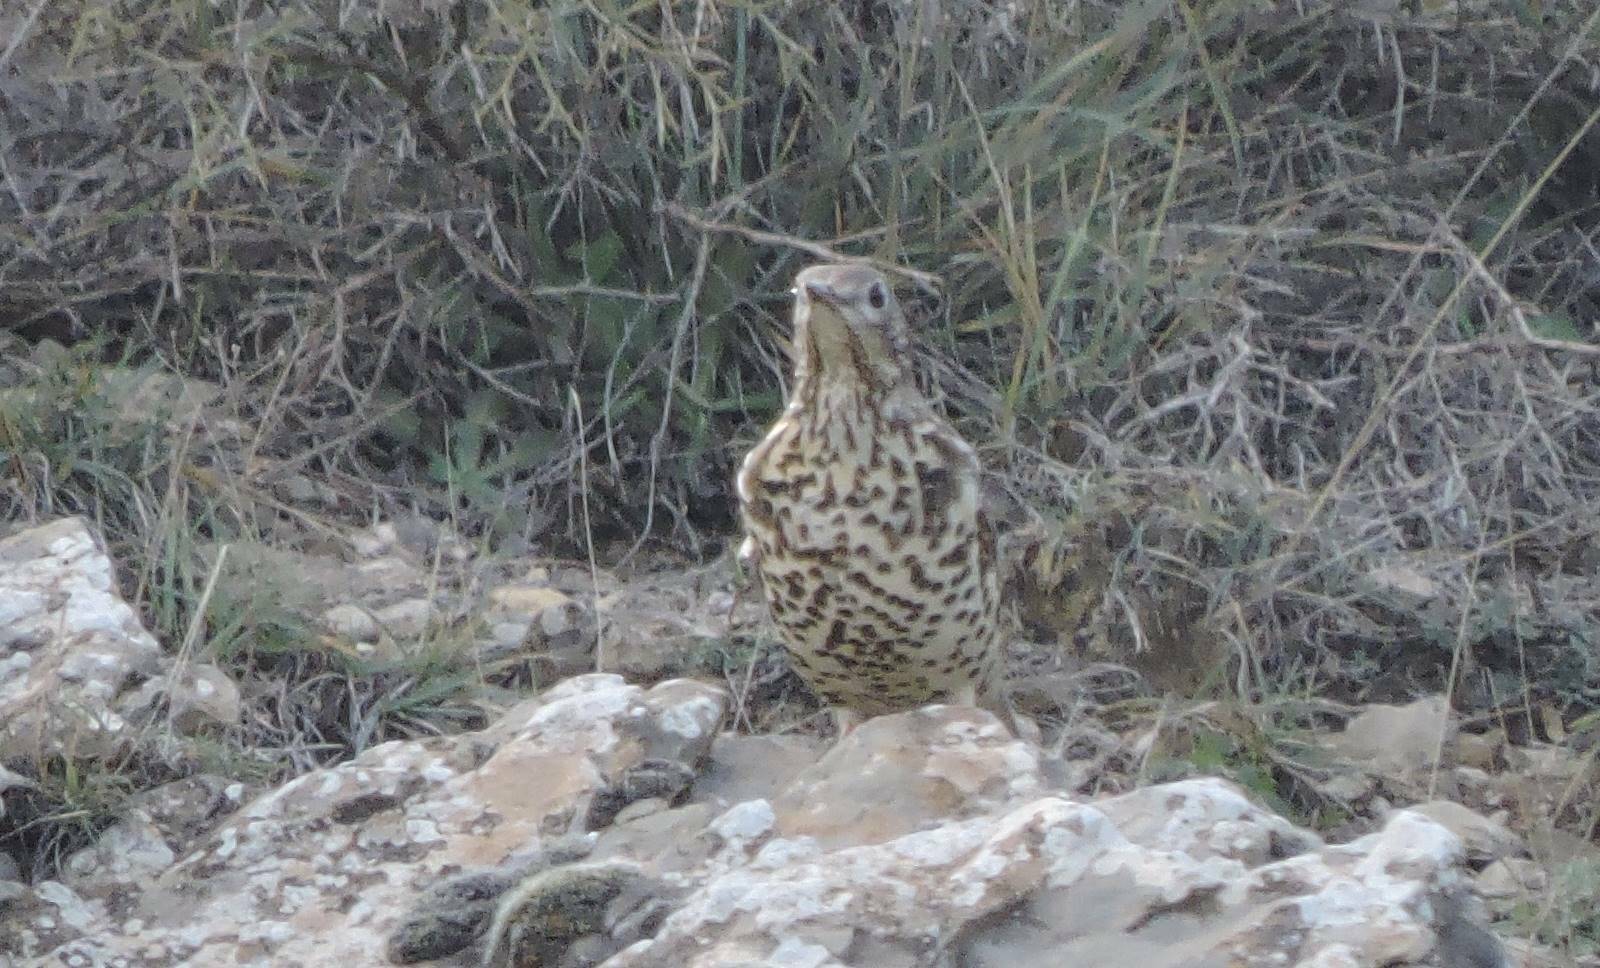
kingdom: Animalia
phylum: Chordata
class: Aves
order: Passeriformes
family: Turdidae
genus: Turdus
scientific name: Turdus viscivorus
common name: Mistle thrush
